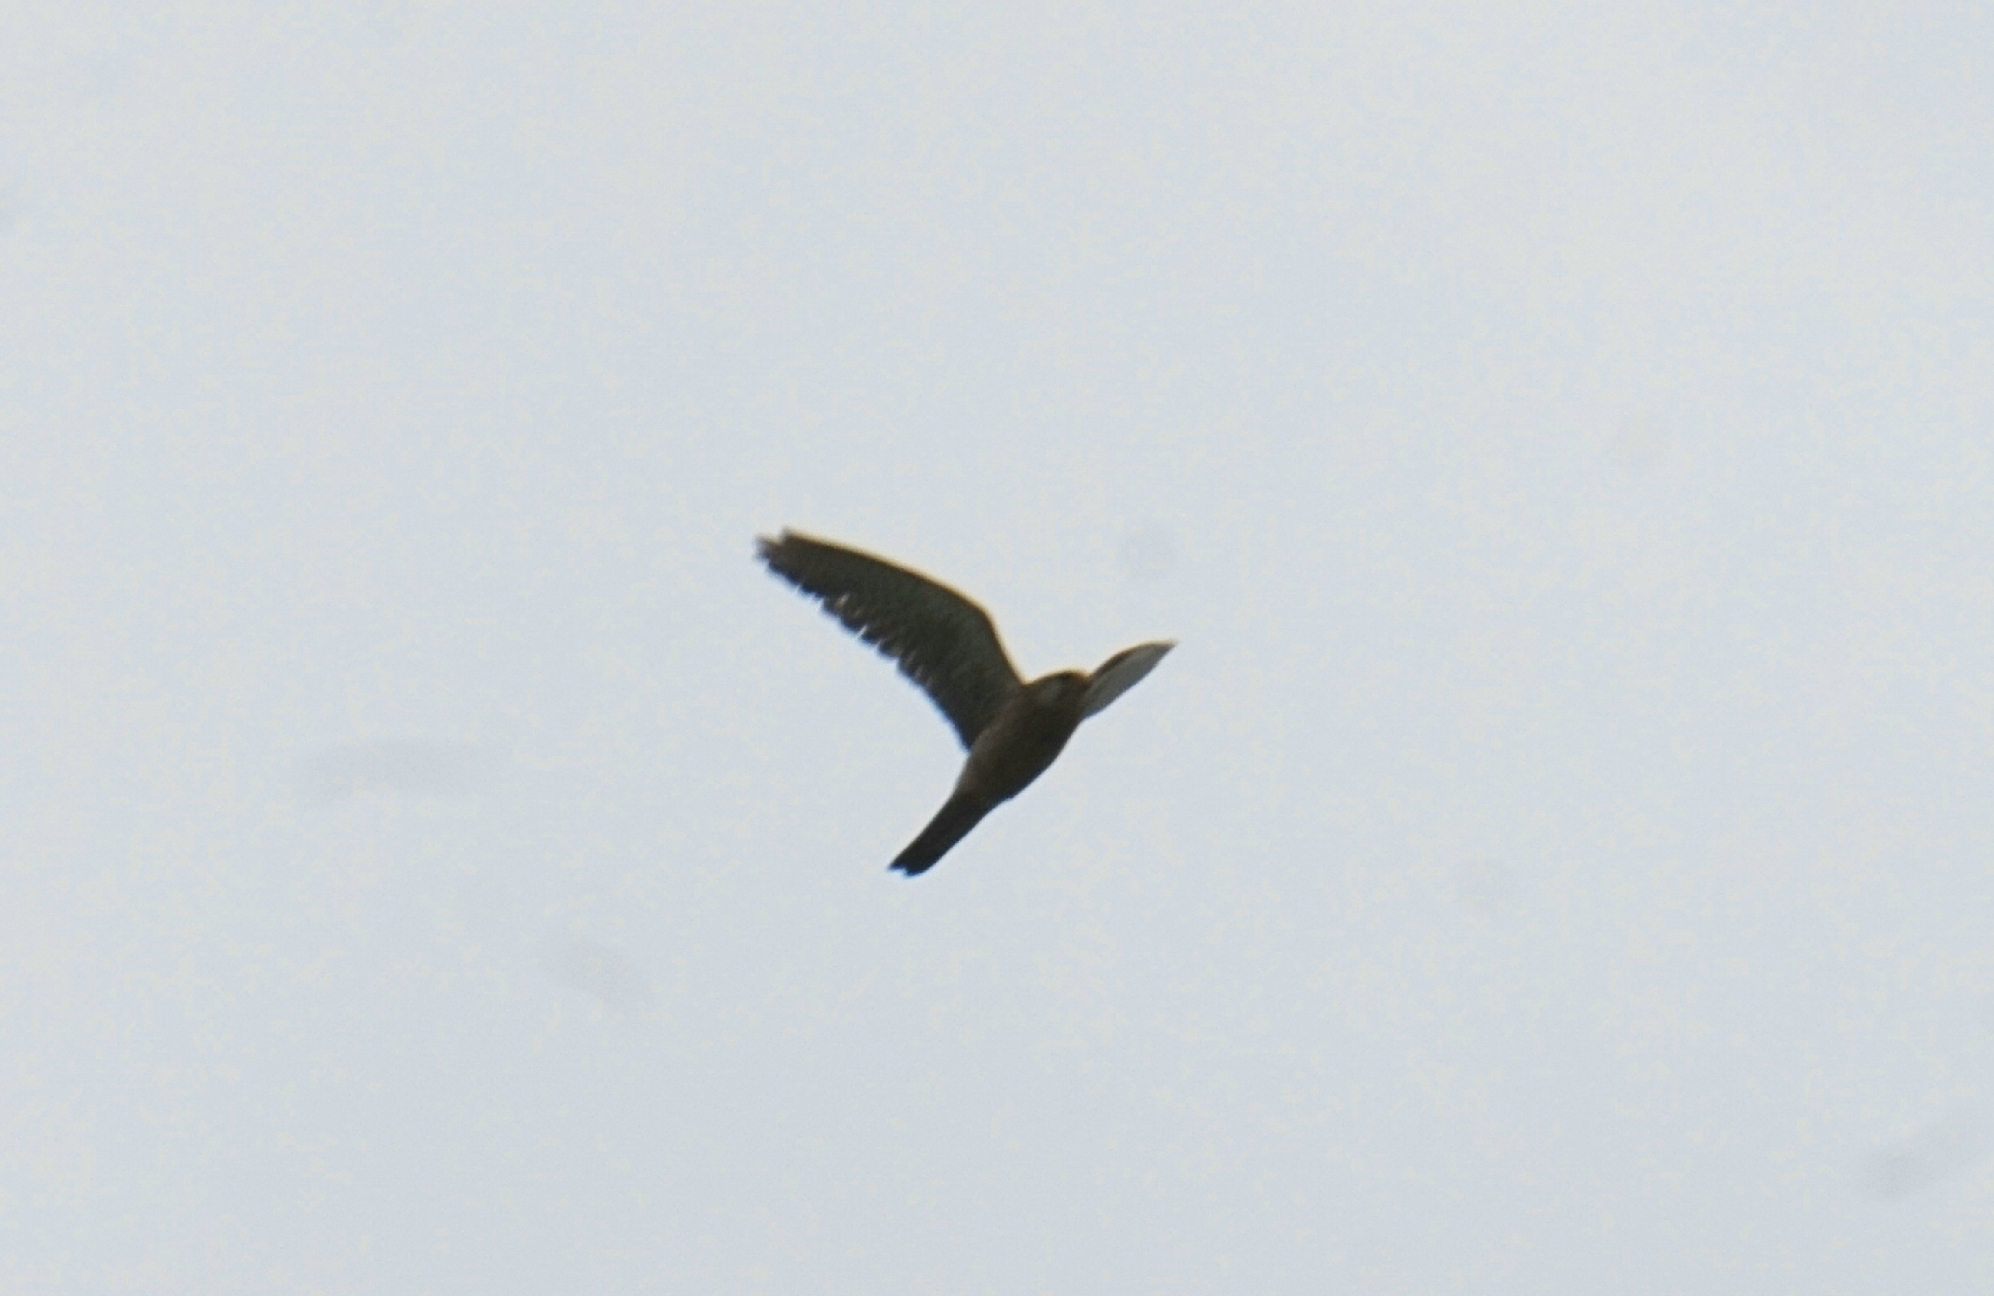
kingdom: Animalia
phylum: Chordata
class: Aves
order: Falconiformes
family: Falconidae
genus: Falco
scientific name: Falco tinnunculus
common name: Common kestrel
